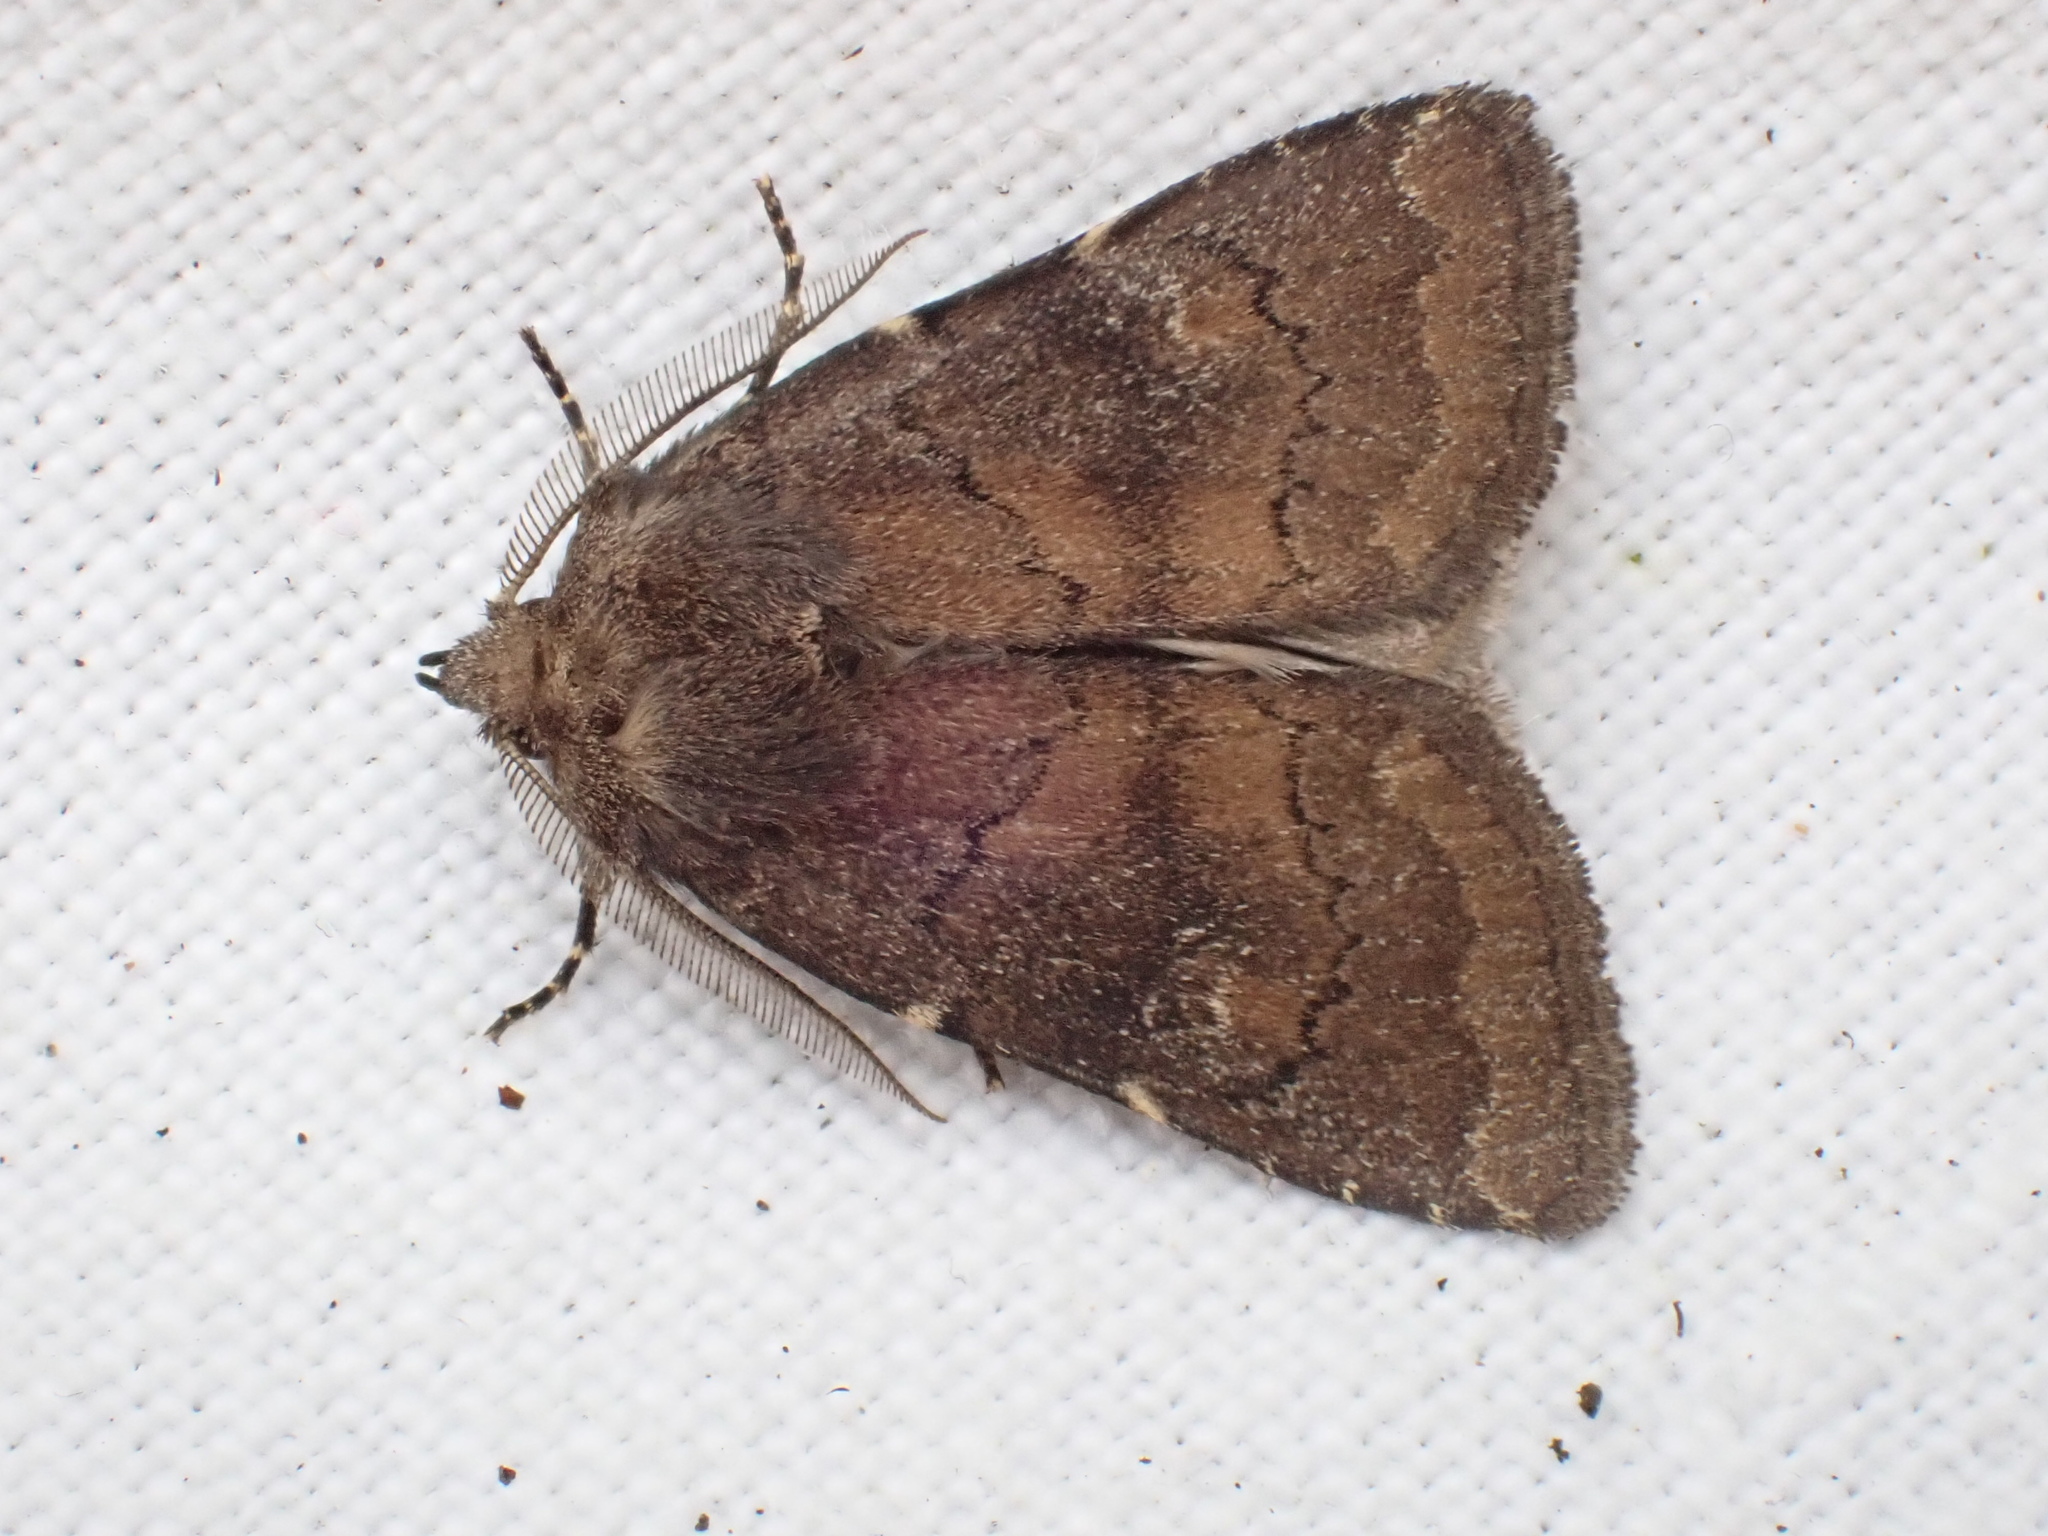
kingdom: Animalia
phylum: Arthropoda
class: Insecta
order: Lepidoptera
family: Noctuidae
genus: Charanyca
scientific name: Charanyca ferruginea
